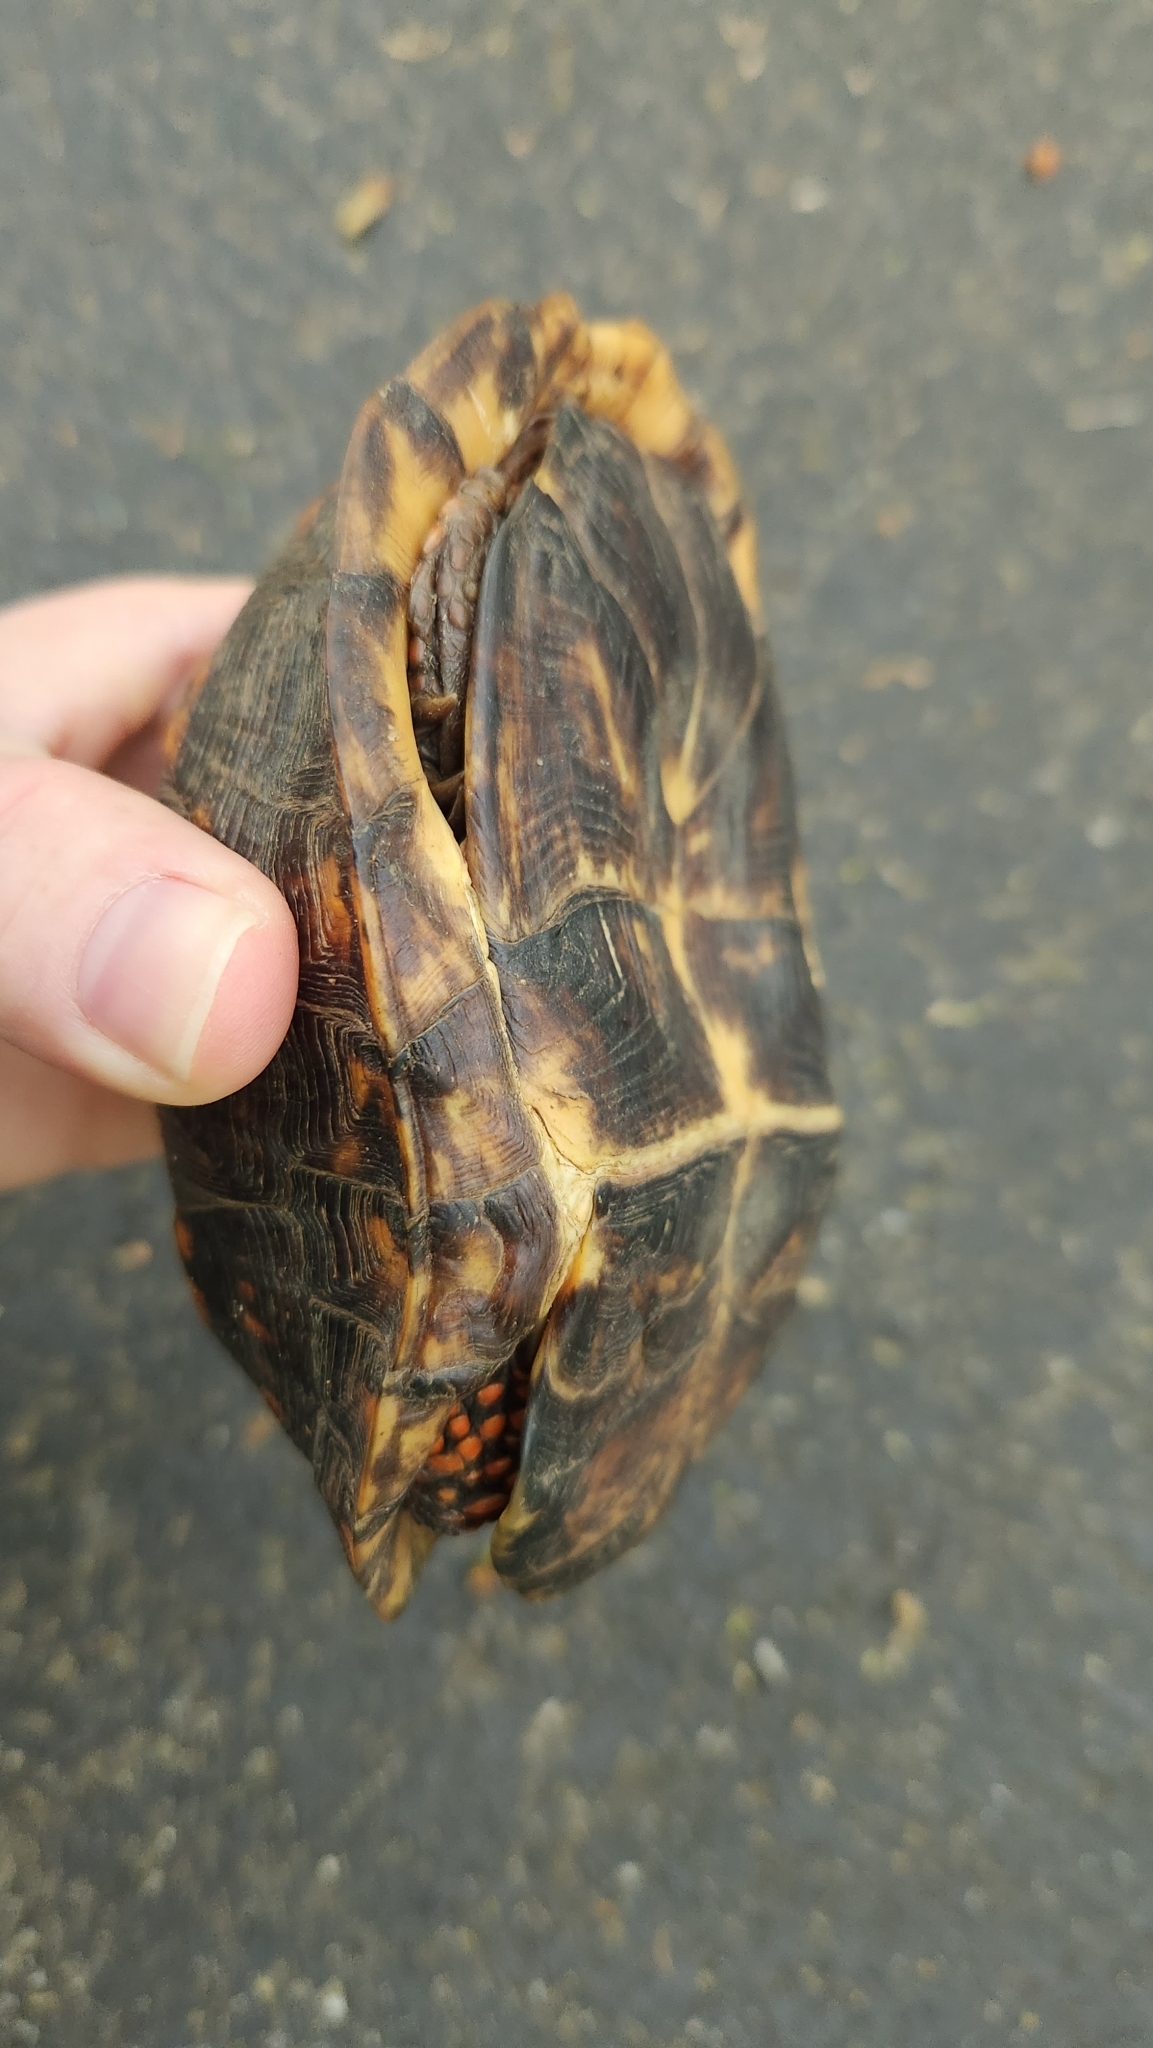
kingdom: Animalia
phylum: Chordata
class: Testudines
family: Emydidae
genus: Terrapene
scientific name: Terrapene carolina
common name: Common box turtle
